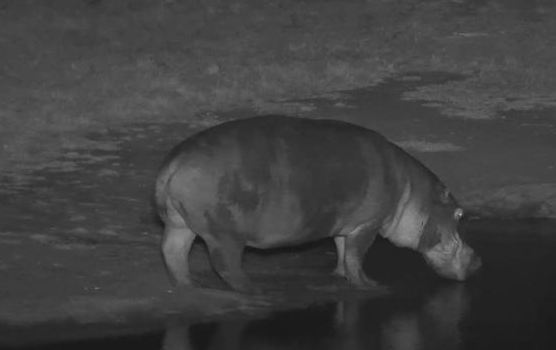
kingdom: Animalia
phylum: Chordata
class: Mammalia
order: Artiodactyla
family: Hippopotamidae
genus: Hippopotamus
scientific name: Hippopotamus amphibius
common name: Common hippopotamus
